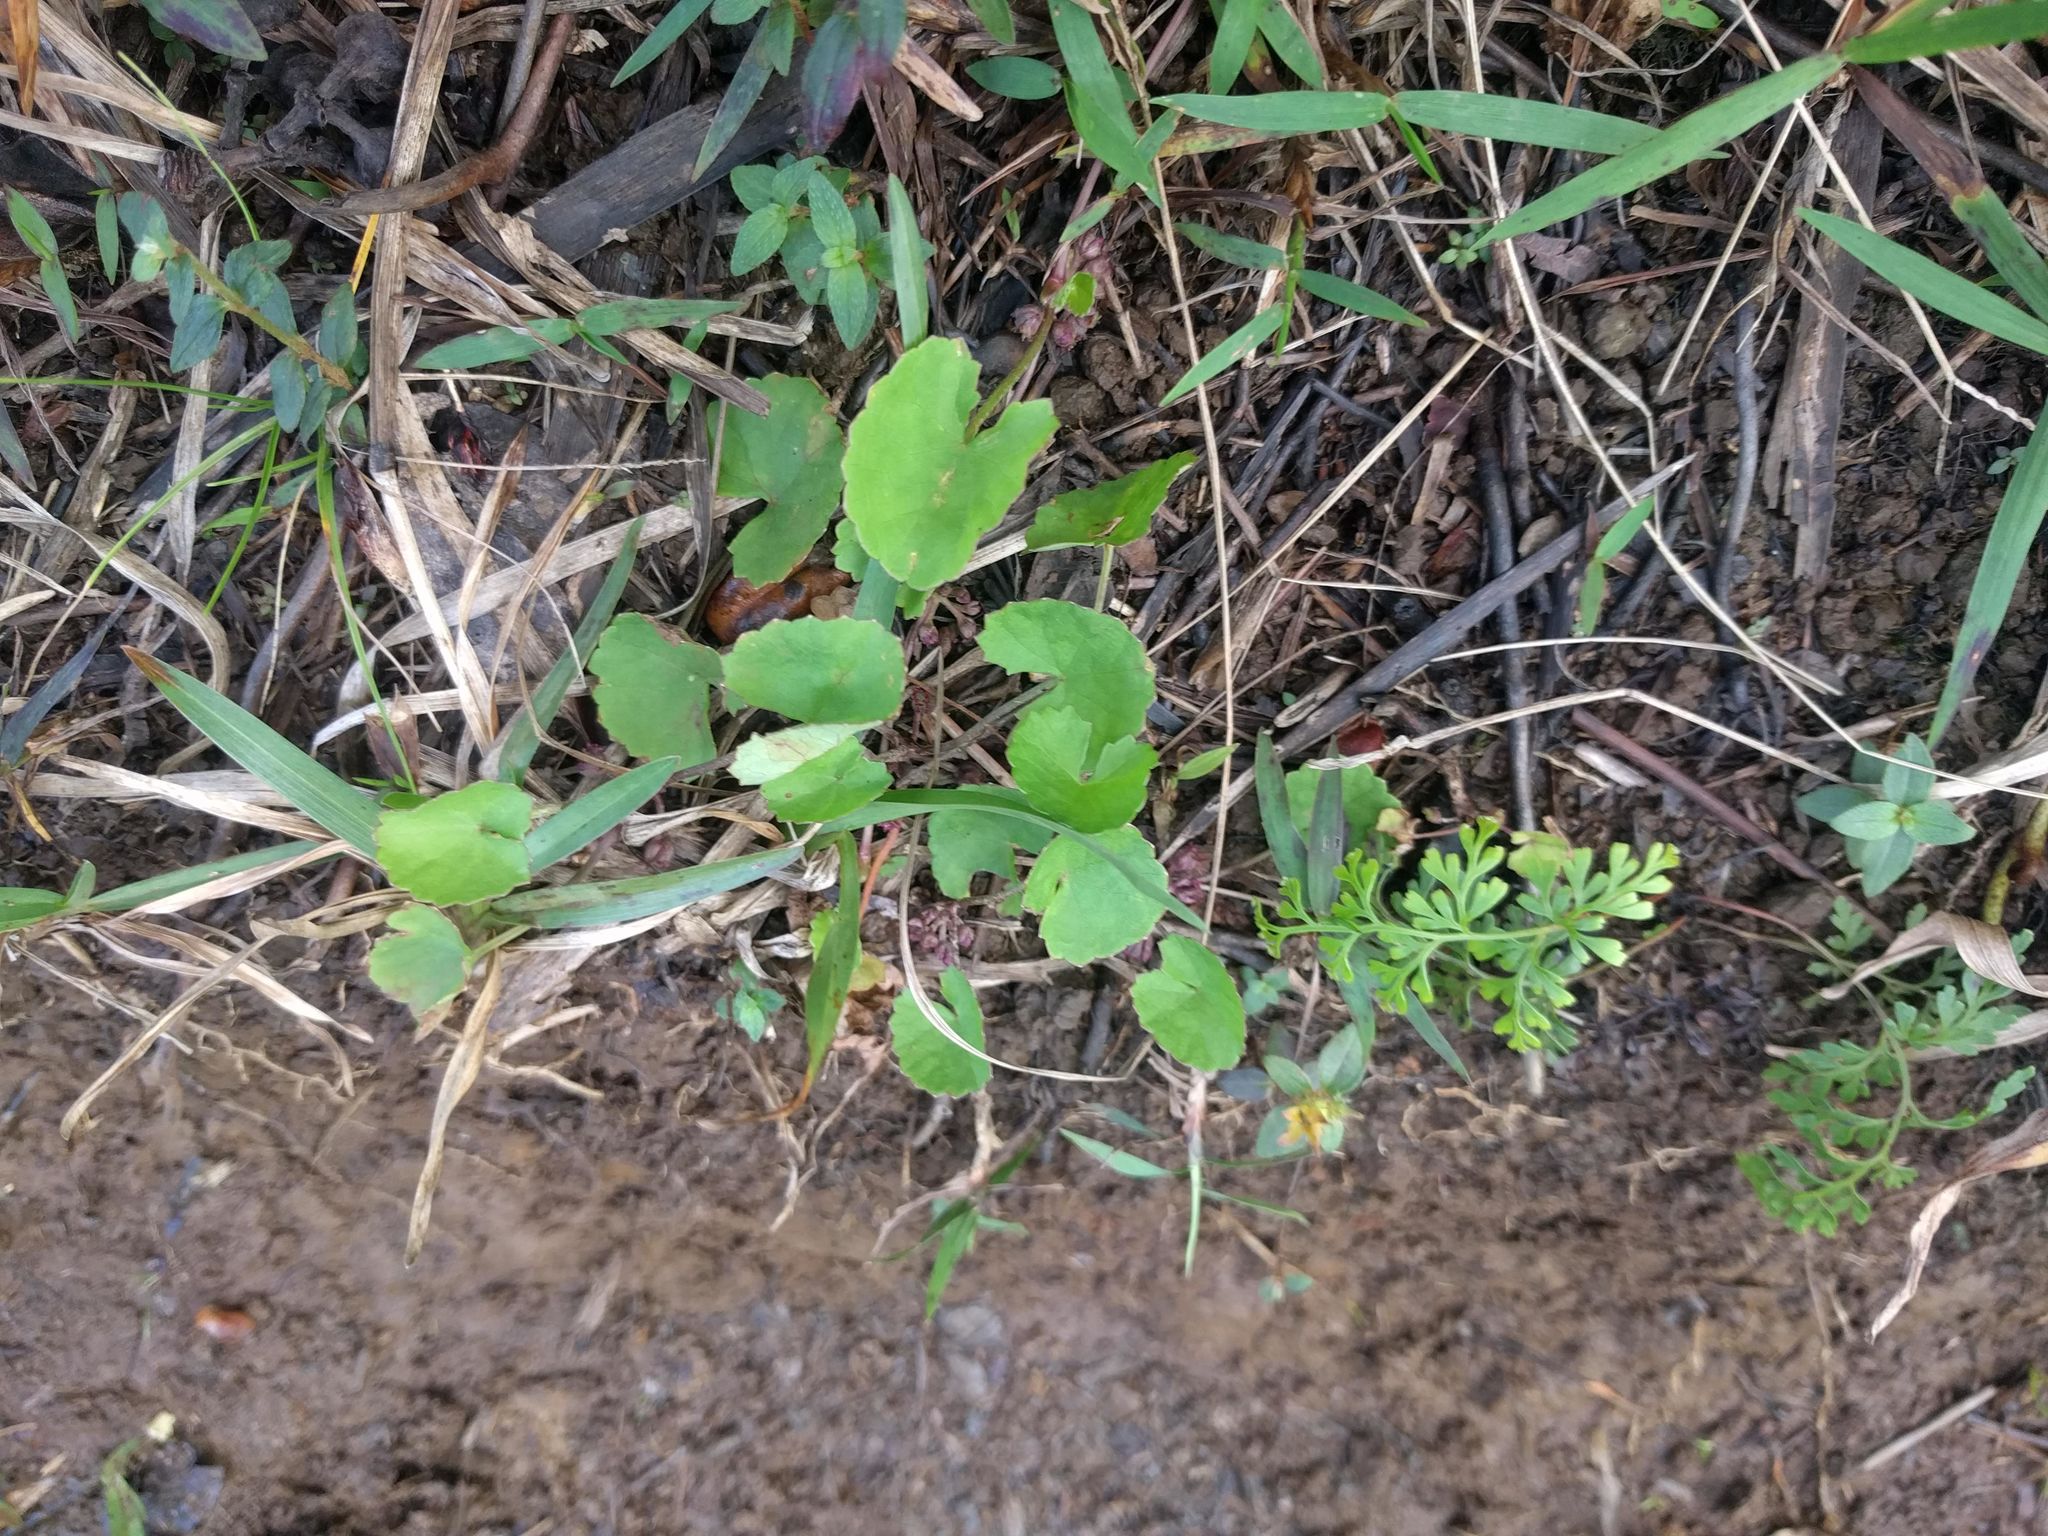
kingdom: Plantae
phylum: Tracheophyta
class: Magnoliopsida
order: Apiales
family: Apiaceae
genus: Centella
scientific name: Centella asiatica
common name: Spadeleaf
